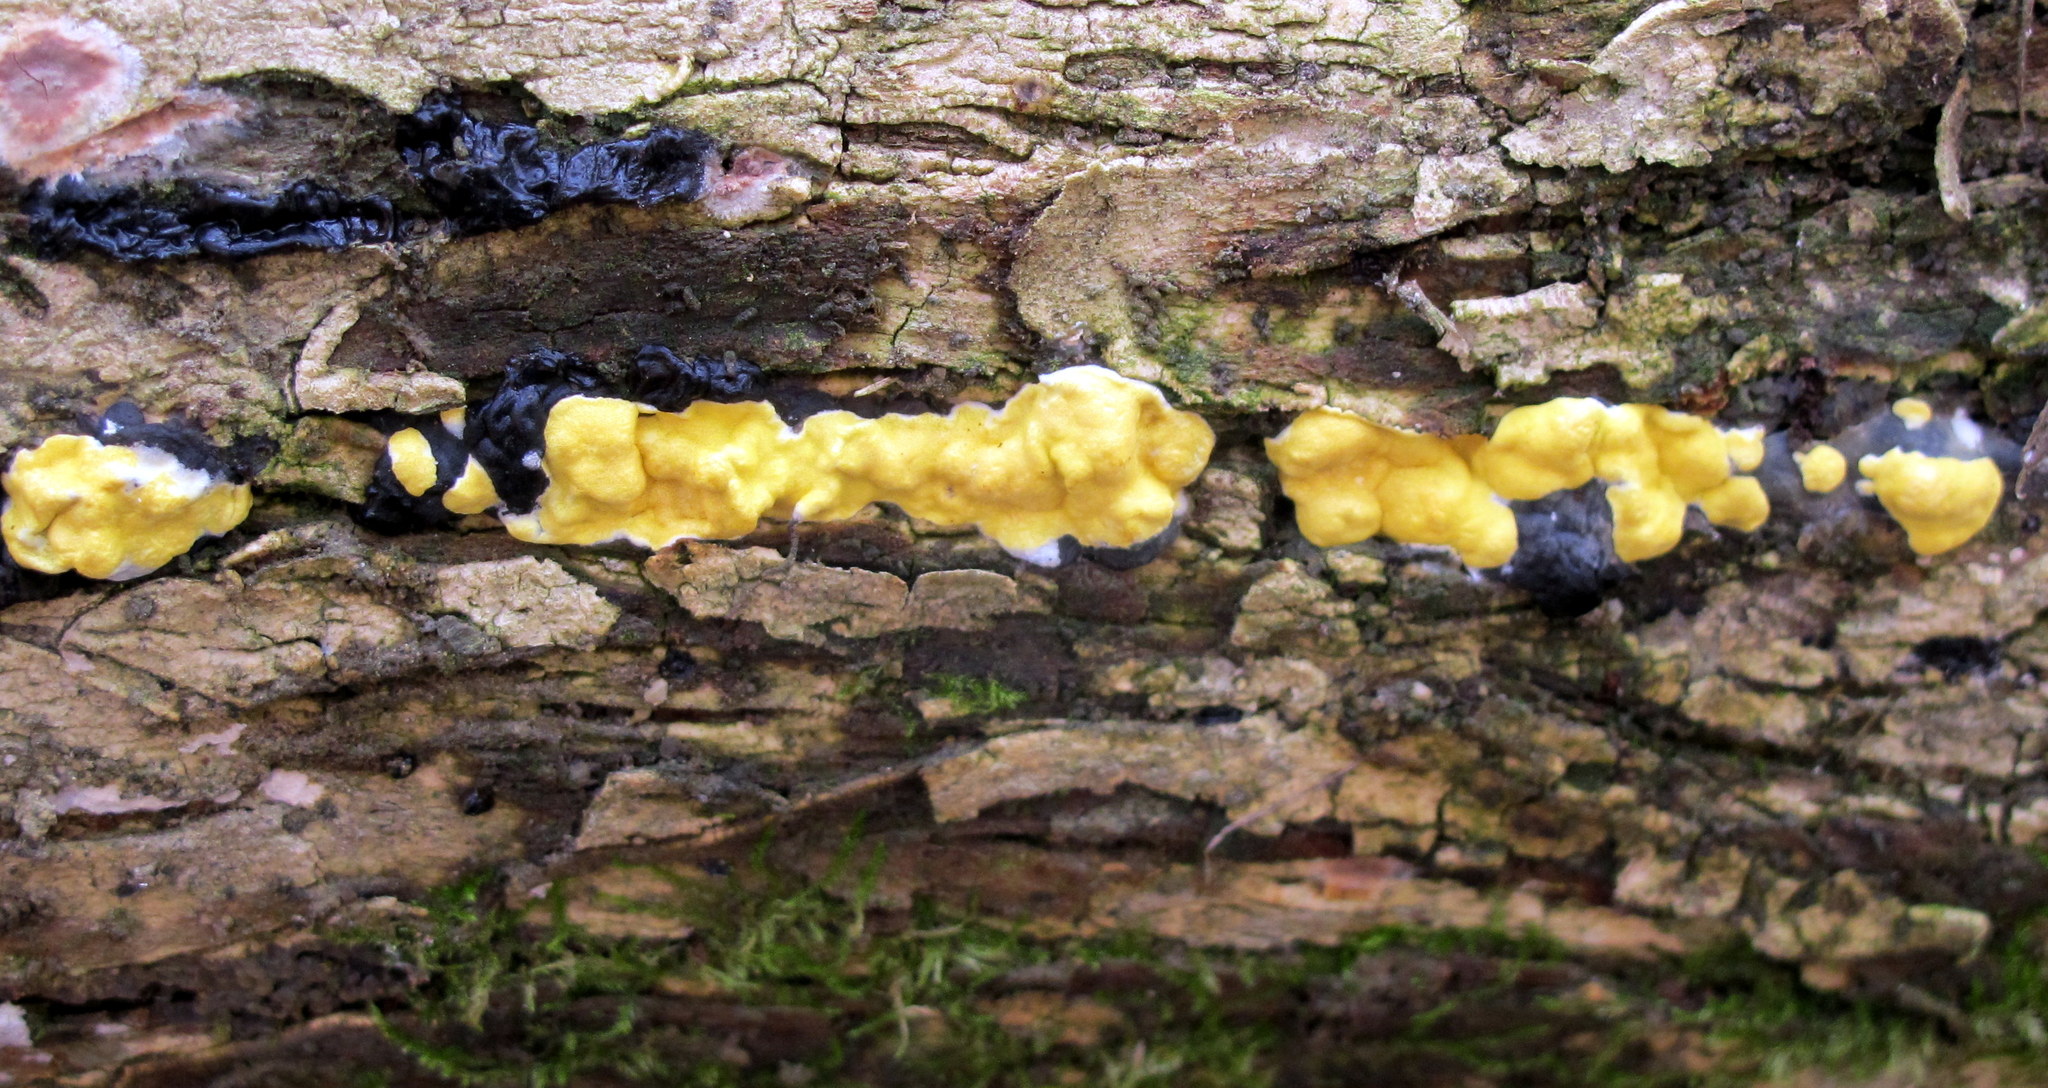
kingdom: Fungi
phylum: Ascomycota
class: Sordariomycetes
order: Hypocreales
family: Hypocreaceae
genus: Trichoderma
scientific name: Trichoderma sulphureum
